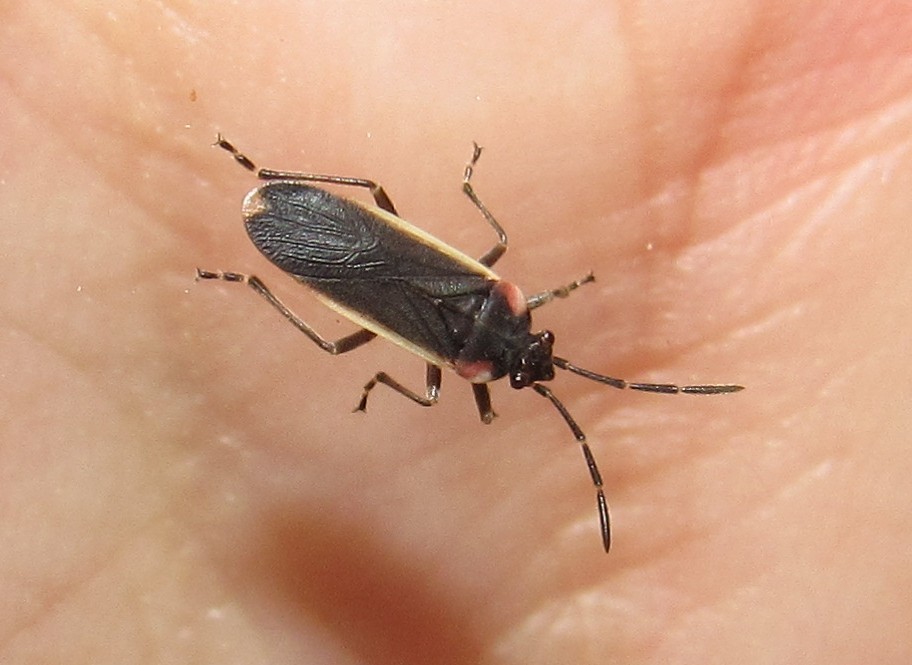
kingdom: Animalia
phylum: Arthropoda
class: Insecta
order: Hemiptera
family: Lygaeidae
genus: Acroleucus
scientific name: Acroleucus coxalis
